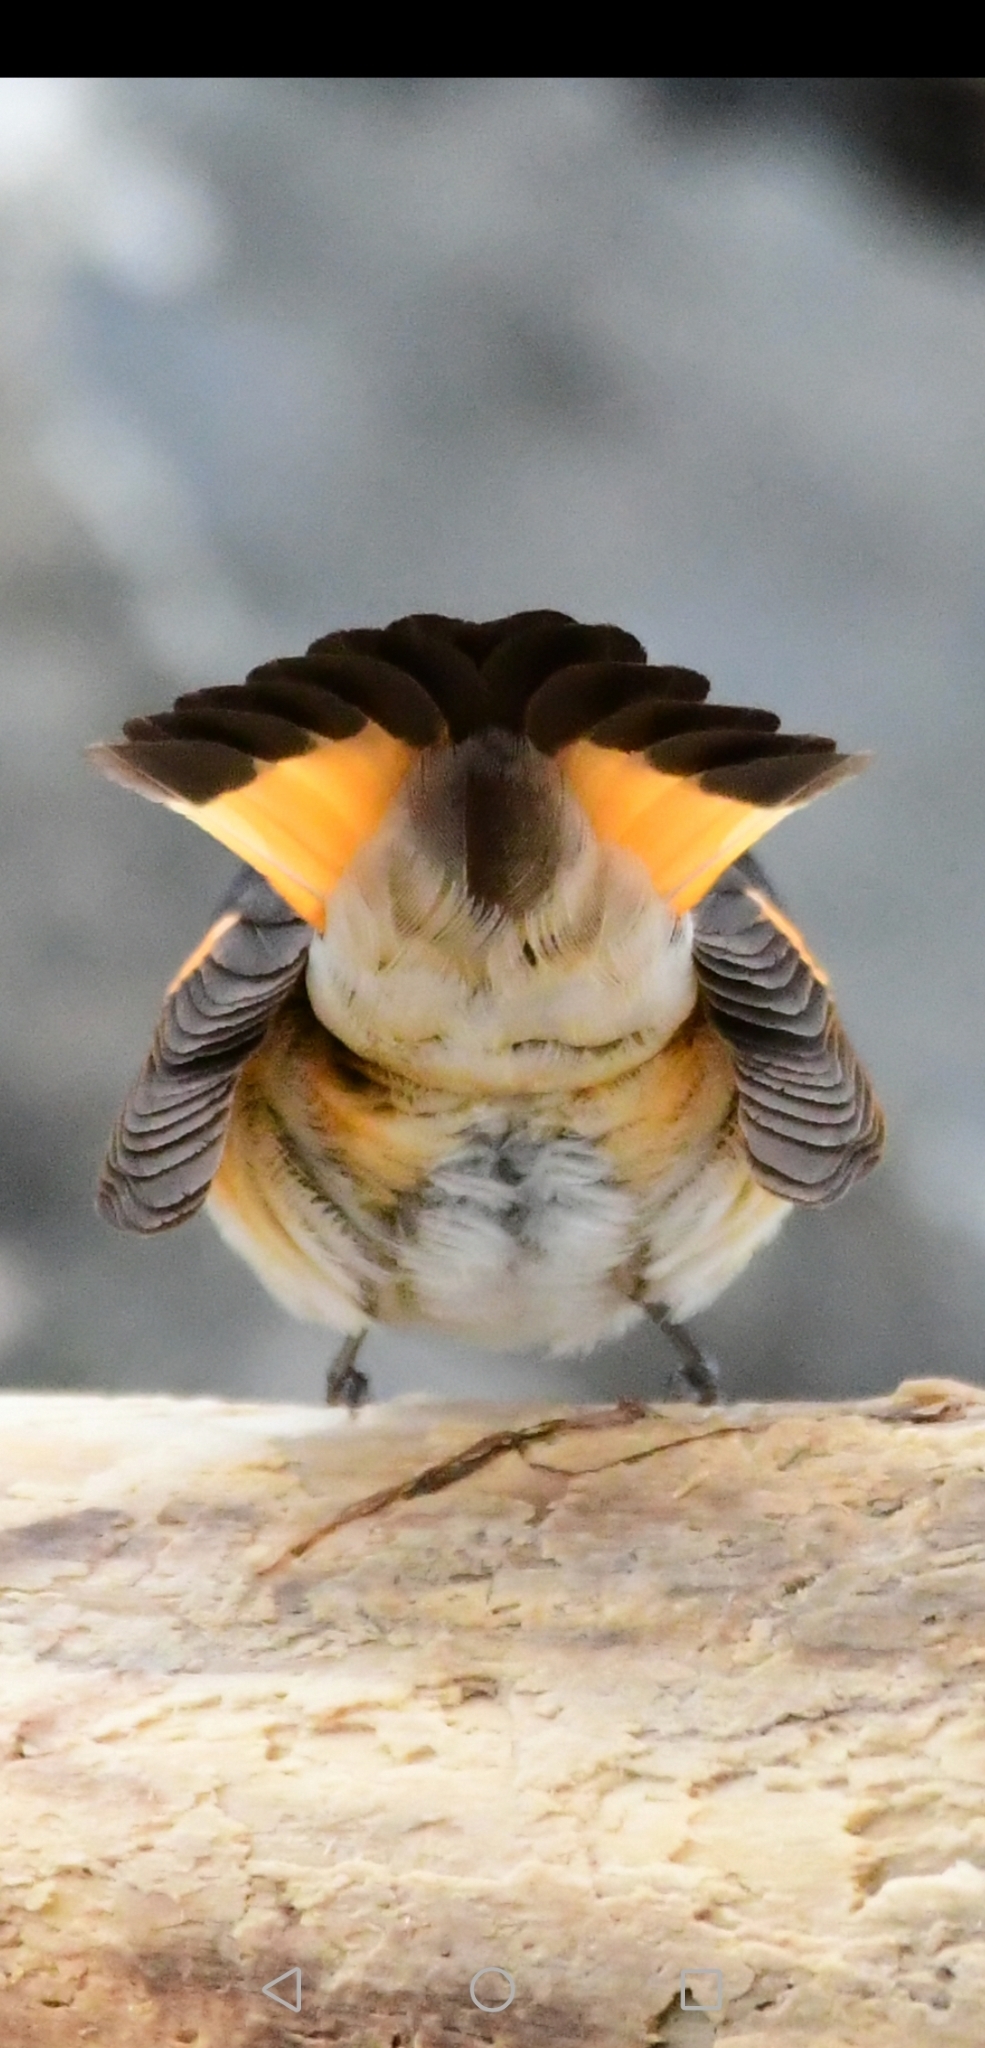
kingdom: Animalia
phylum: Chordata
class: Aves
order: Passeriformes
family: Parulidae
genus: Setophaga
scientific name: Setophaga ruticilla
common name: American redstart
